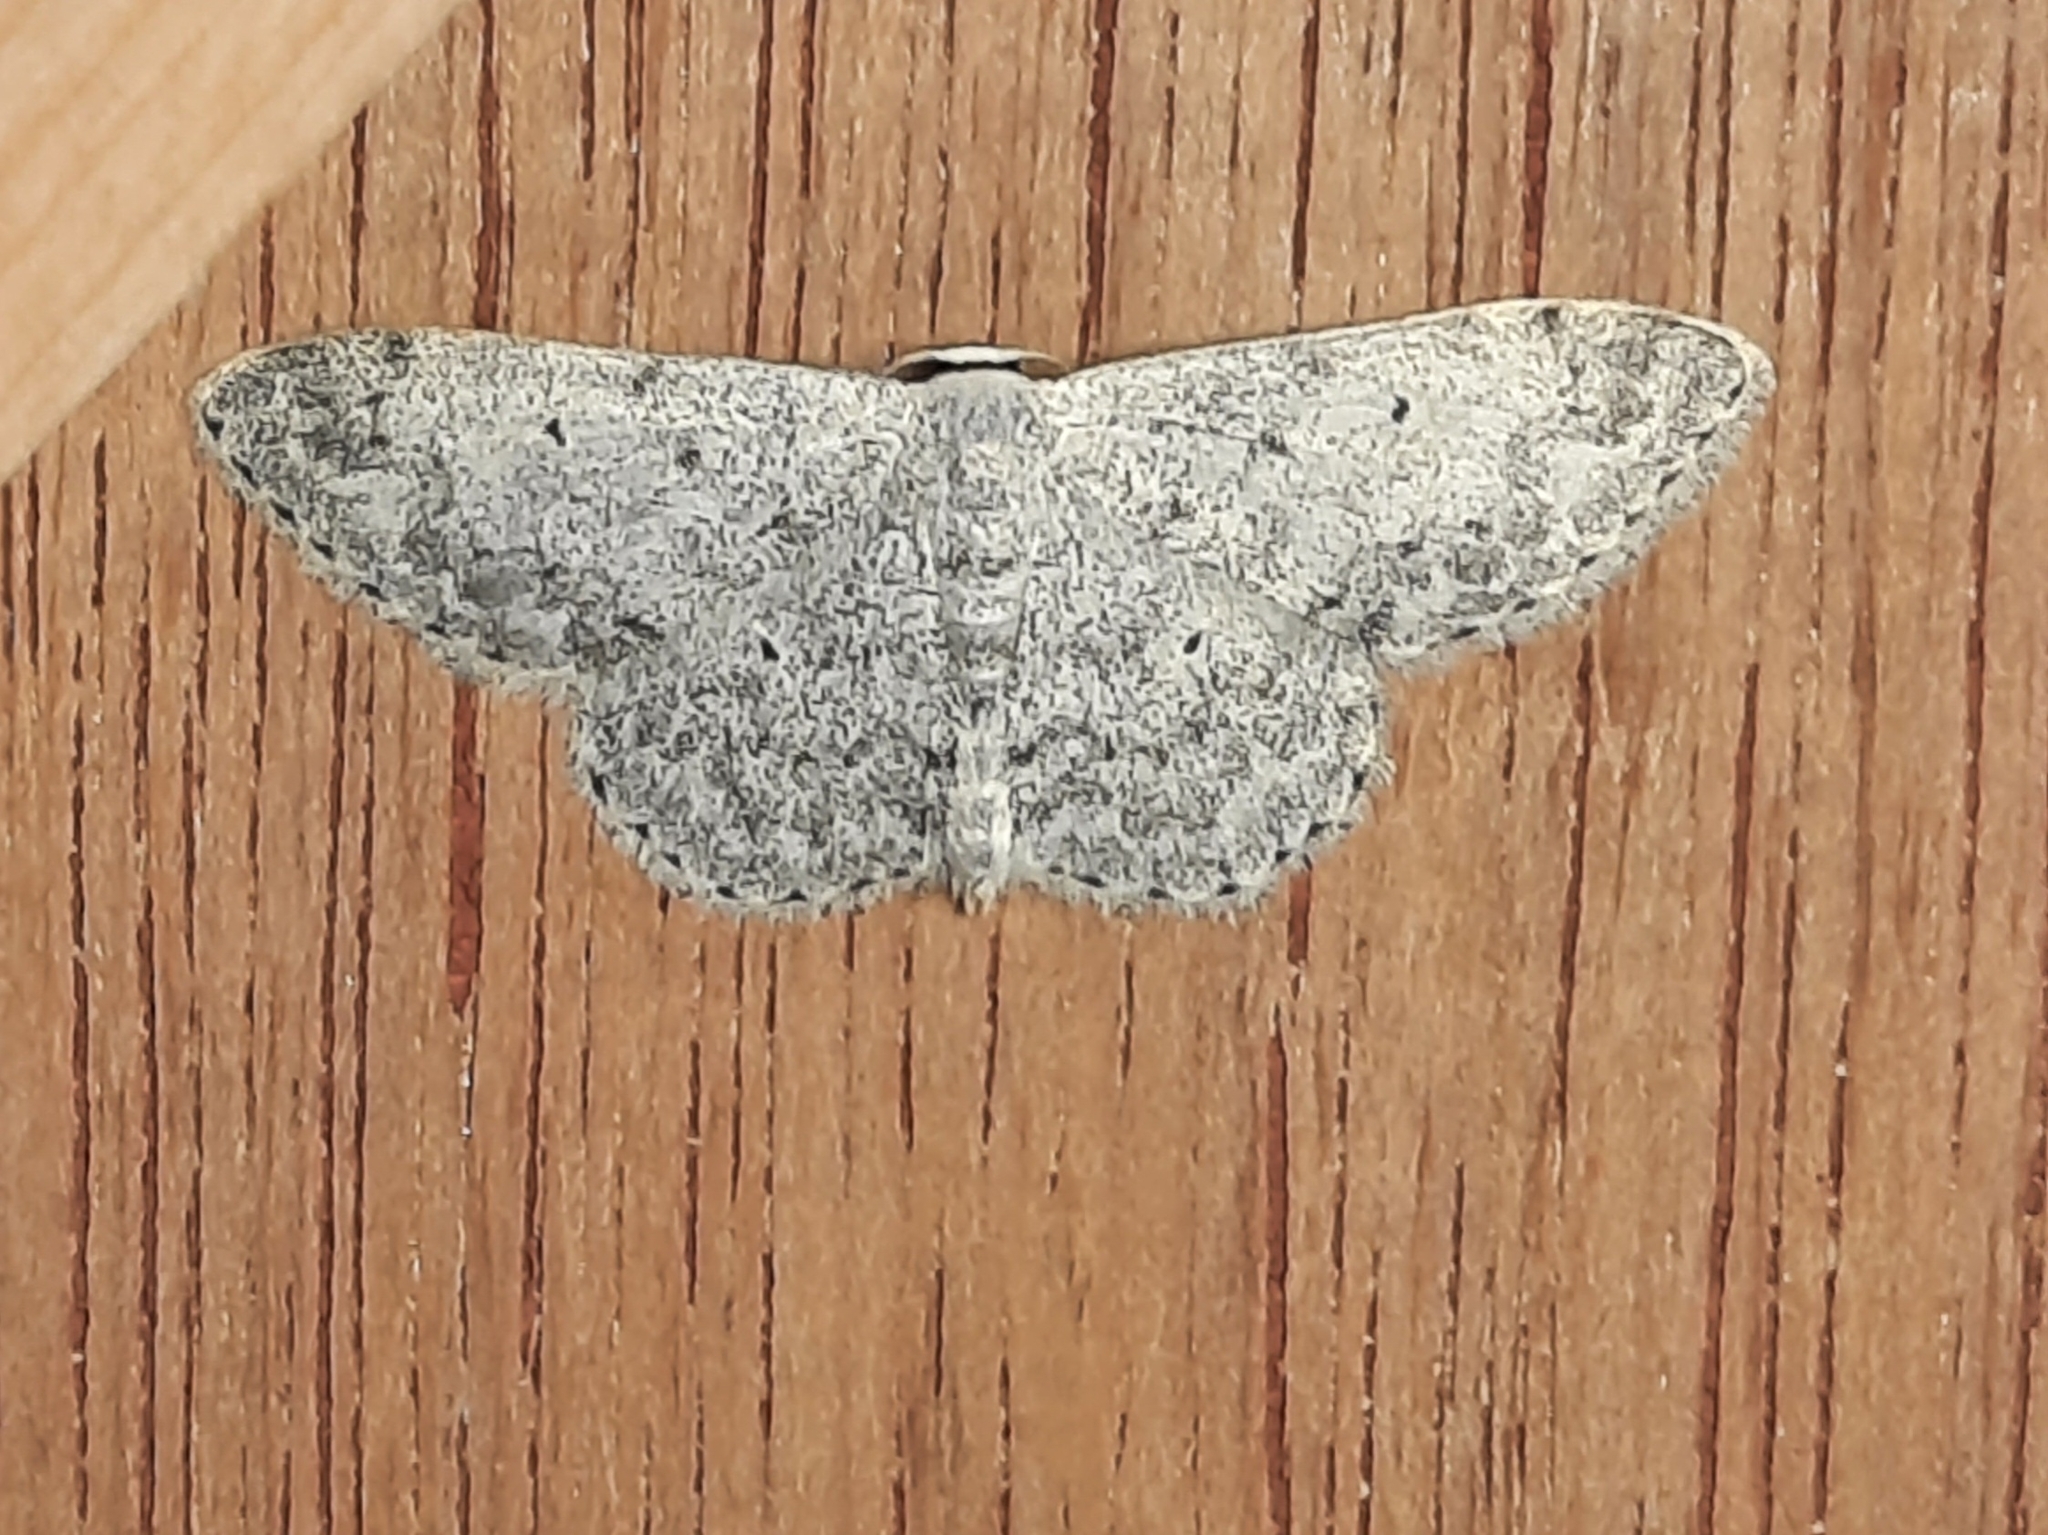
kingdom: Animalia
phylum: Arthropoda
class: Insecta
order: Lepidoptera
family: Geometridae
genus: Scopula
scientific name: Scopula marginepunctata
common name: Mullein wave
